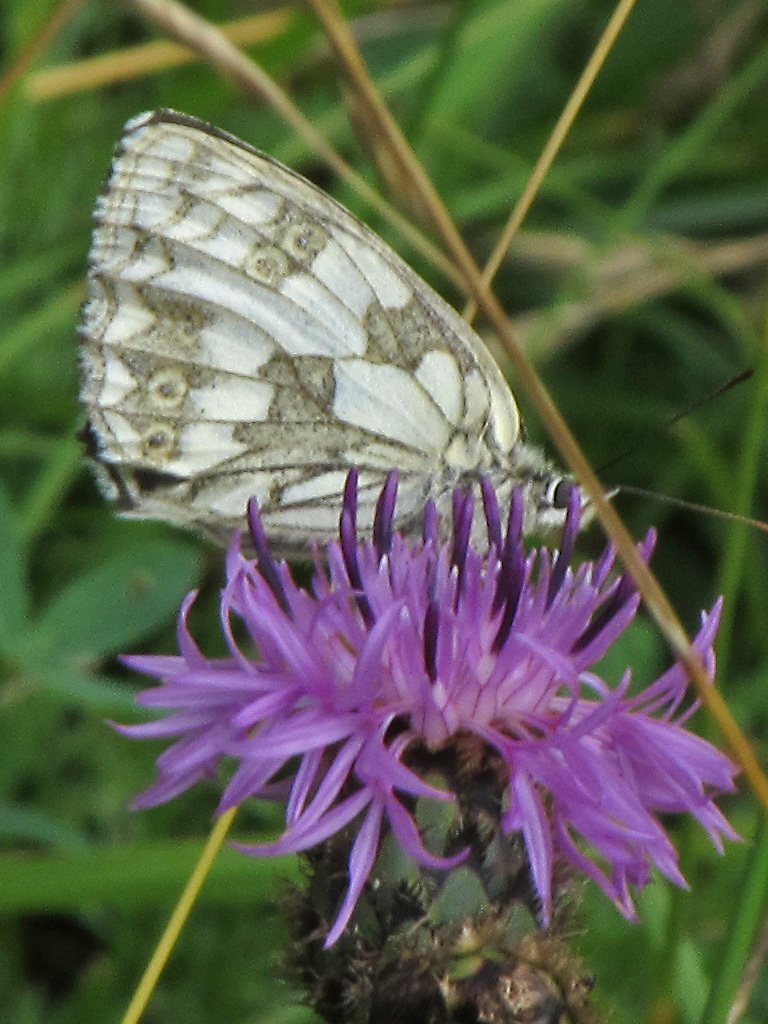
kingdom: Animalia
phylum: Arthropoda
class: Insecta
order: Lepidoptera
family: Nymphalidae
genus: Melanargia
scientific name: Melanargia galathea
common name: Marbled white
